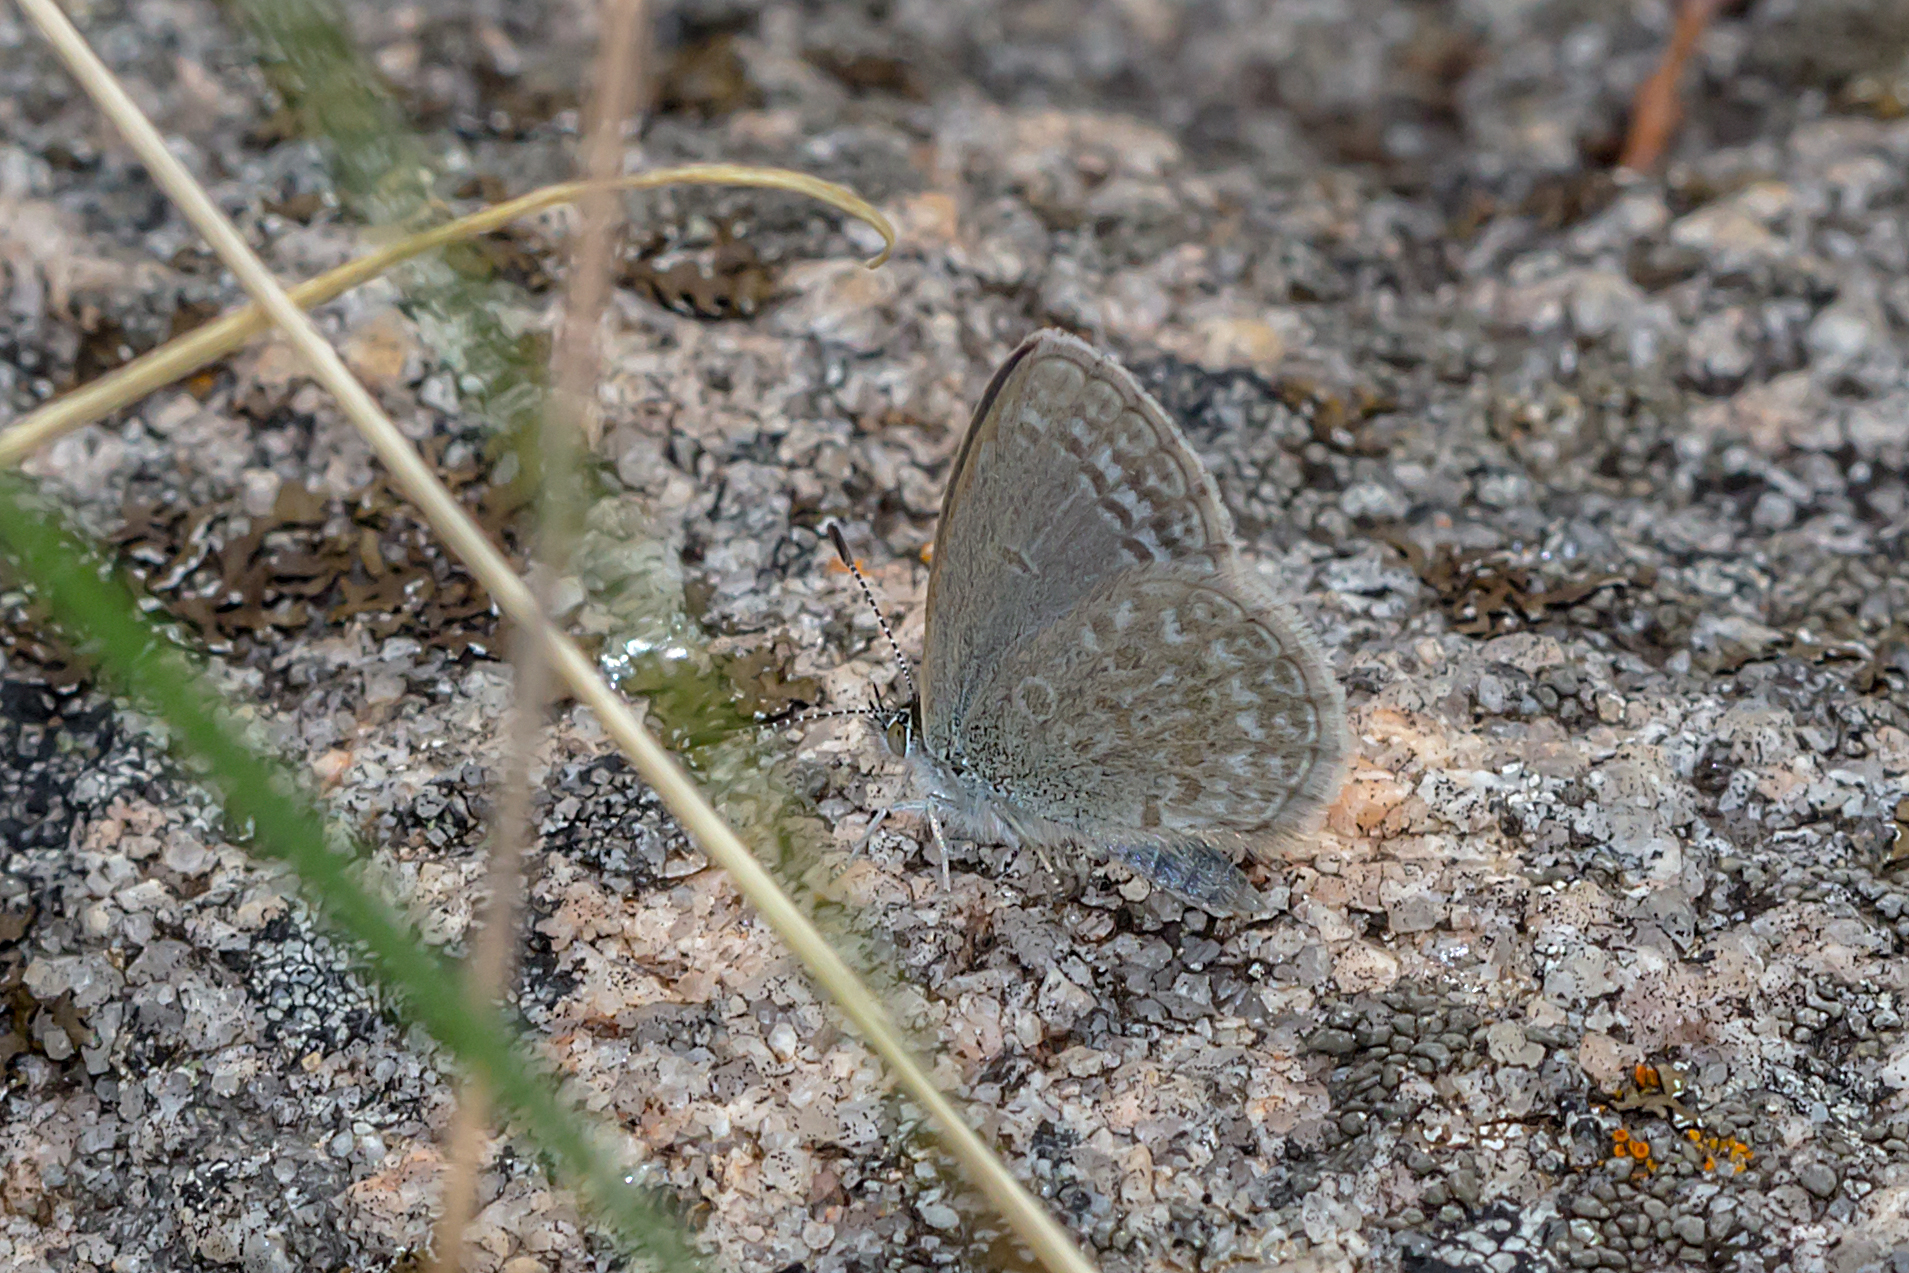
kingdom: Animalia
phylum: Arthropoda
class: Insecta
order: Lepidoptera
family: Lycaenidae
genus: Zizina
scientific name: Zizina otis
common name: Lesser grass blue
